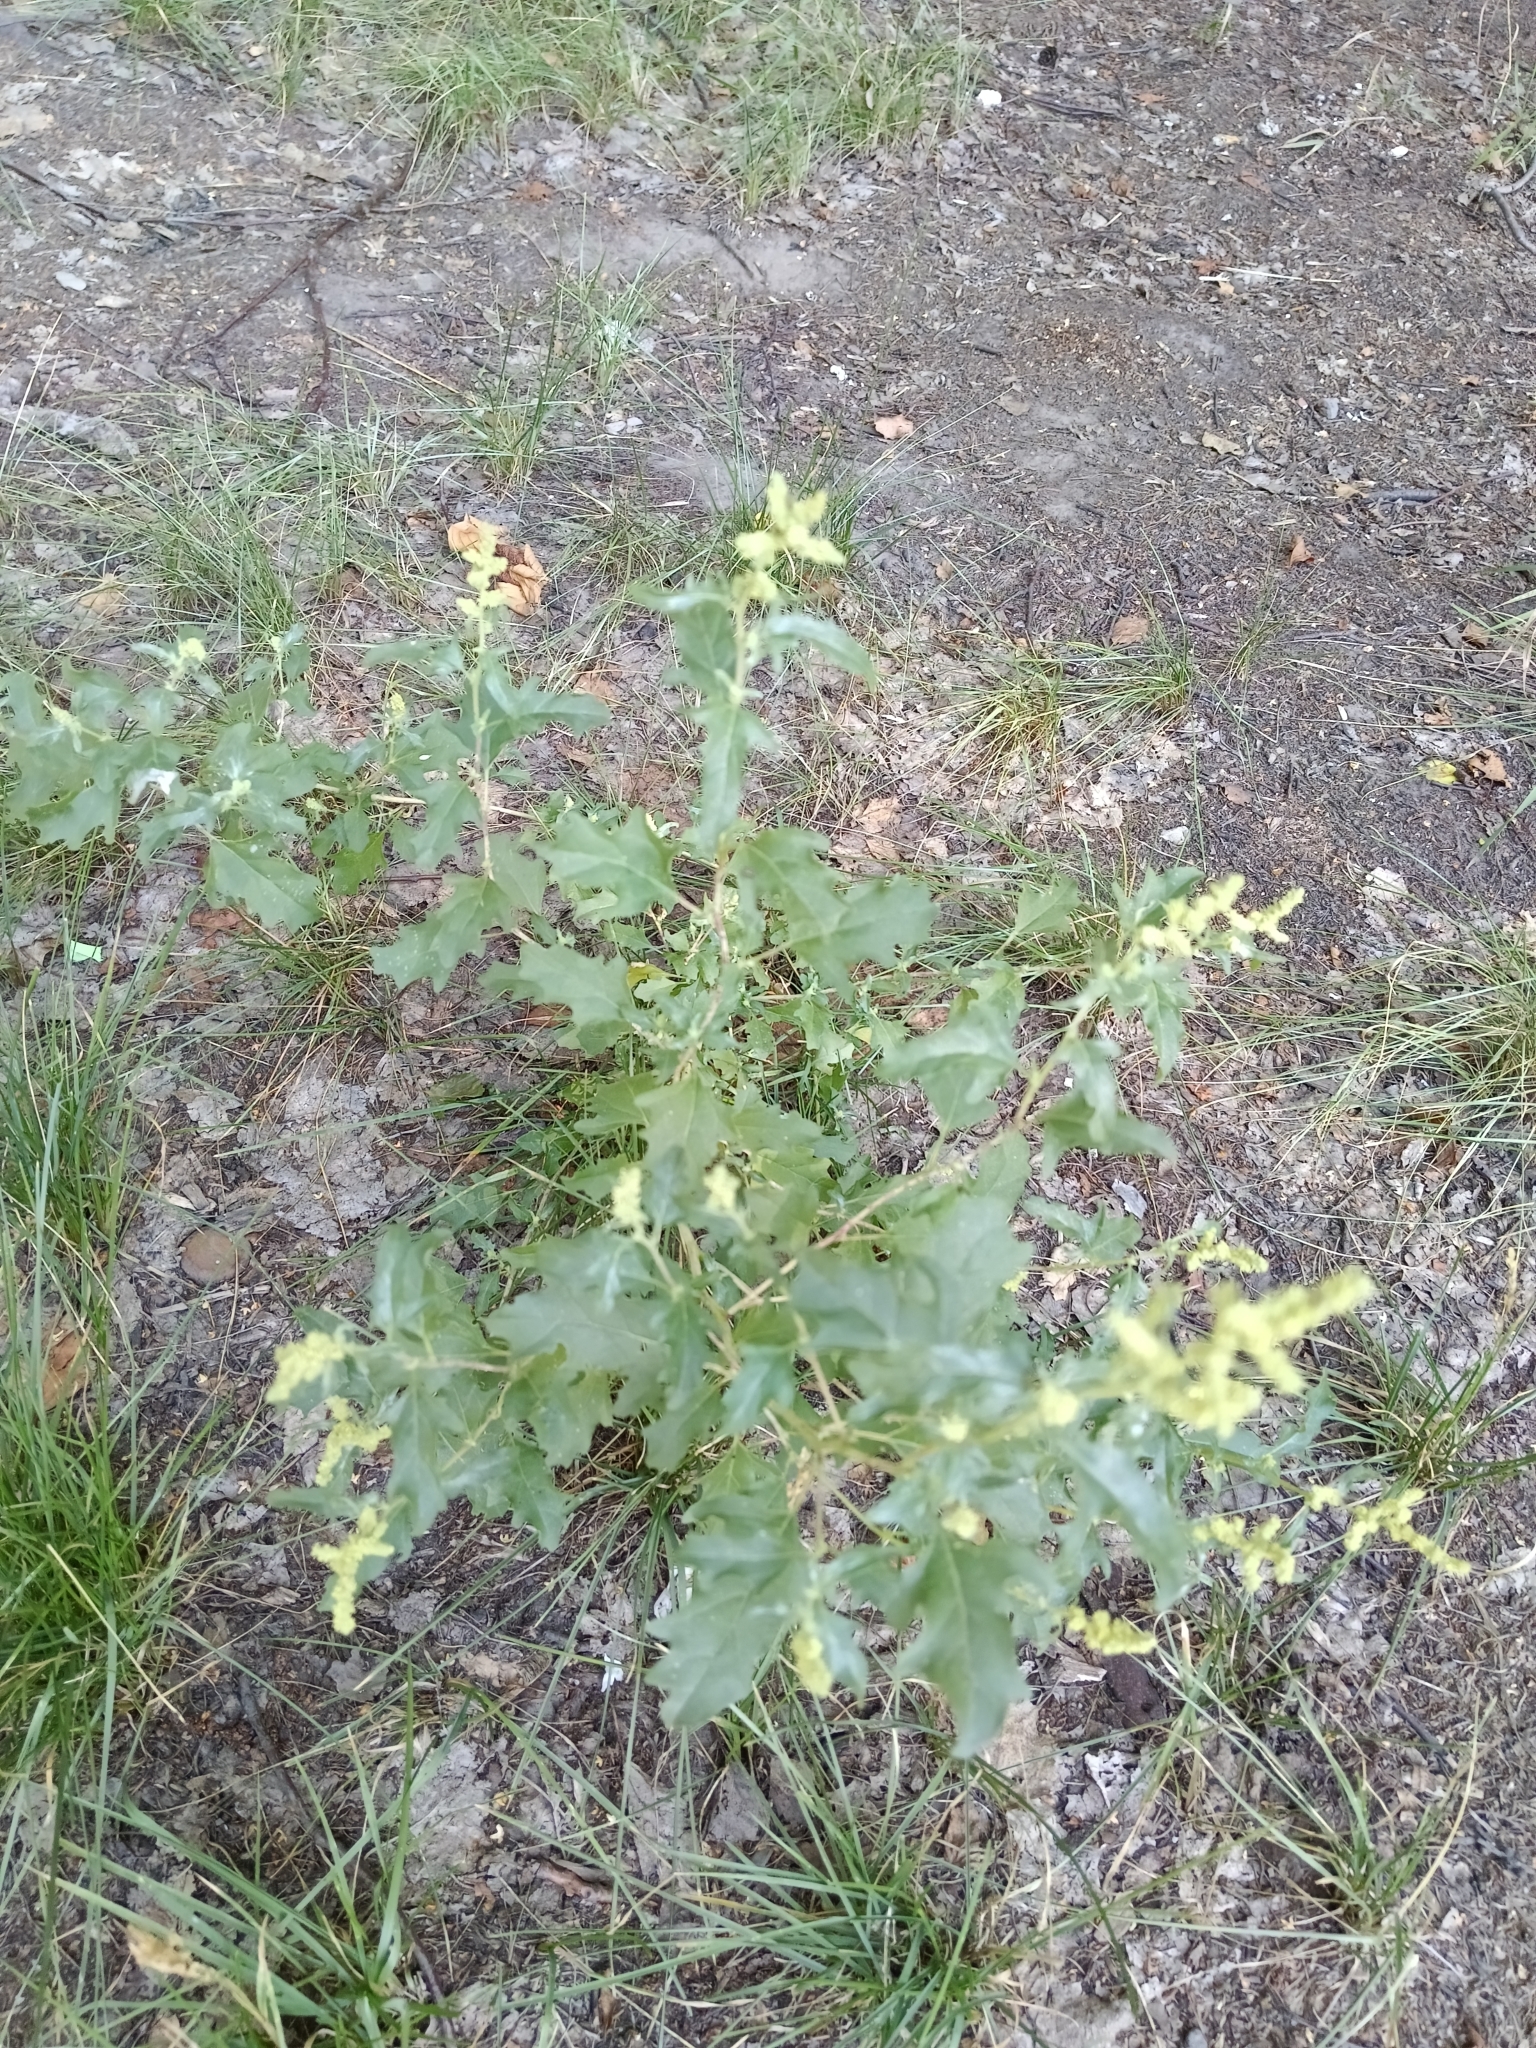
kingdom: Plantae
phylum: Tracheophyta
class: Magnoliopsida
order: Caryophyllales
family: Amaranthaceae
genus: Atriplex
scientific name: Atriplex tatarica
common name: Tatarian orache
